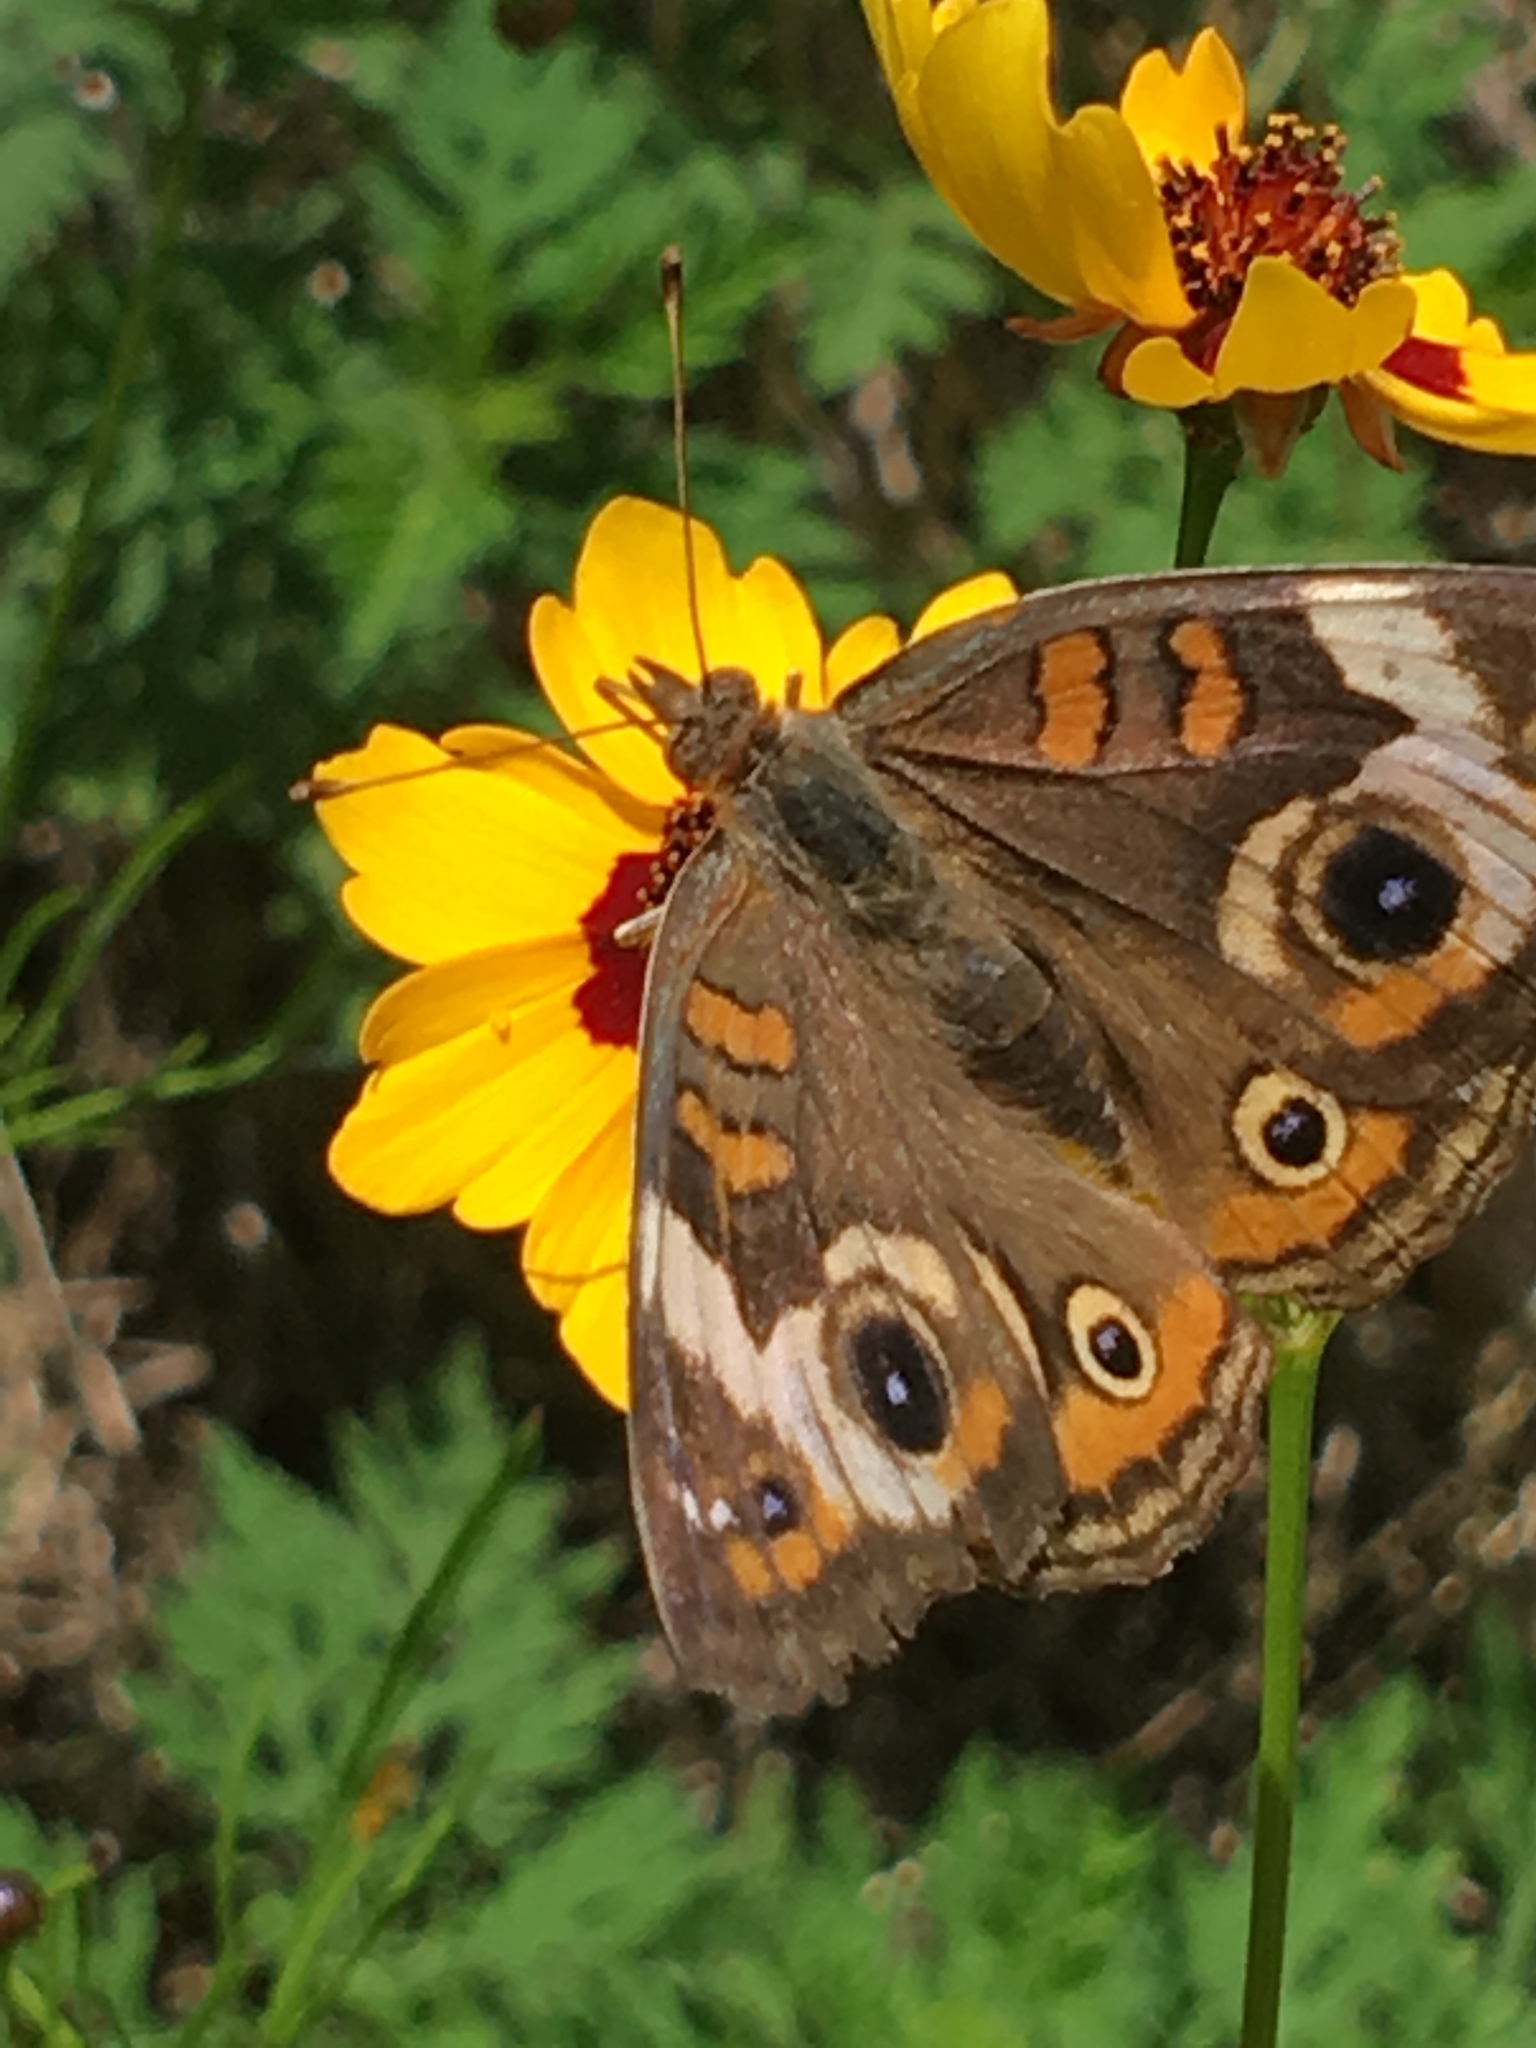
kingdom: Animalia
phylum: Arthropoda
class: Insecta
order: Lepidoptera
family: Nymphalidae
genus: Junonia
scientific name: Junonia coenia
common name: Common buckeye
